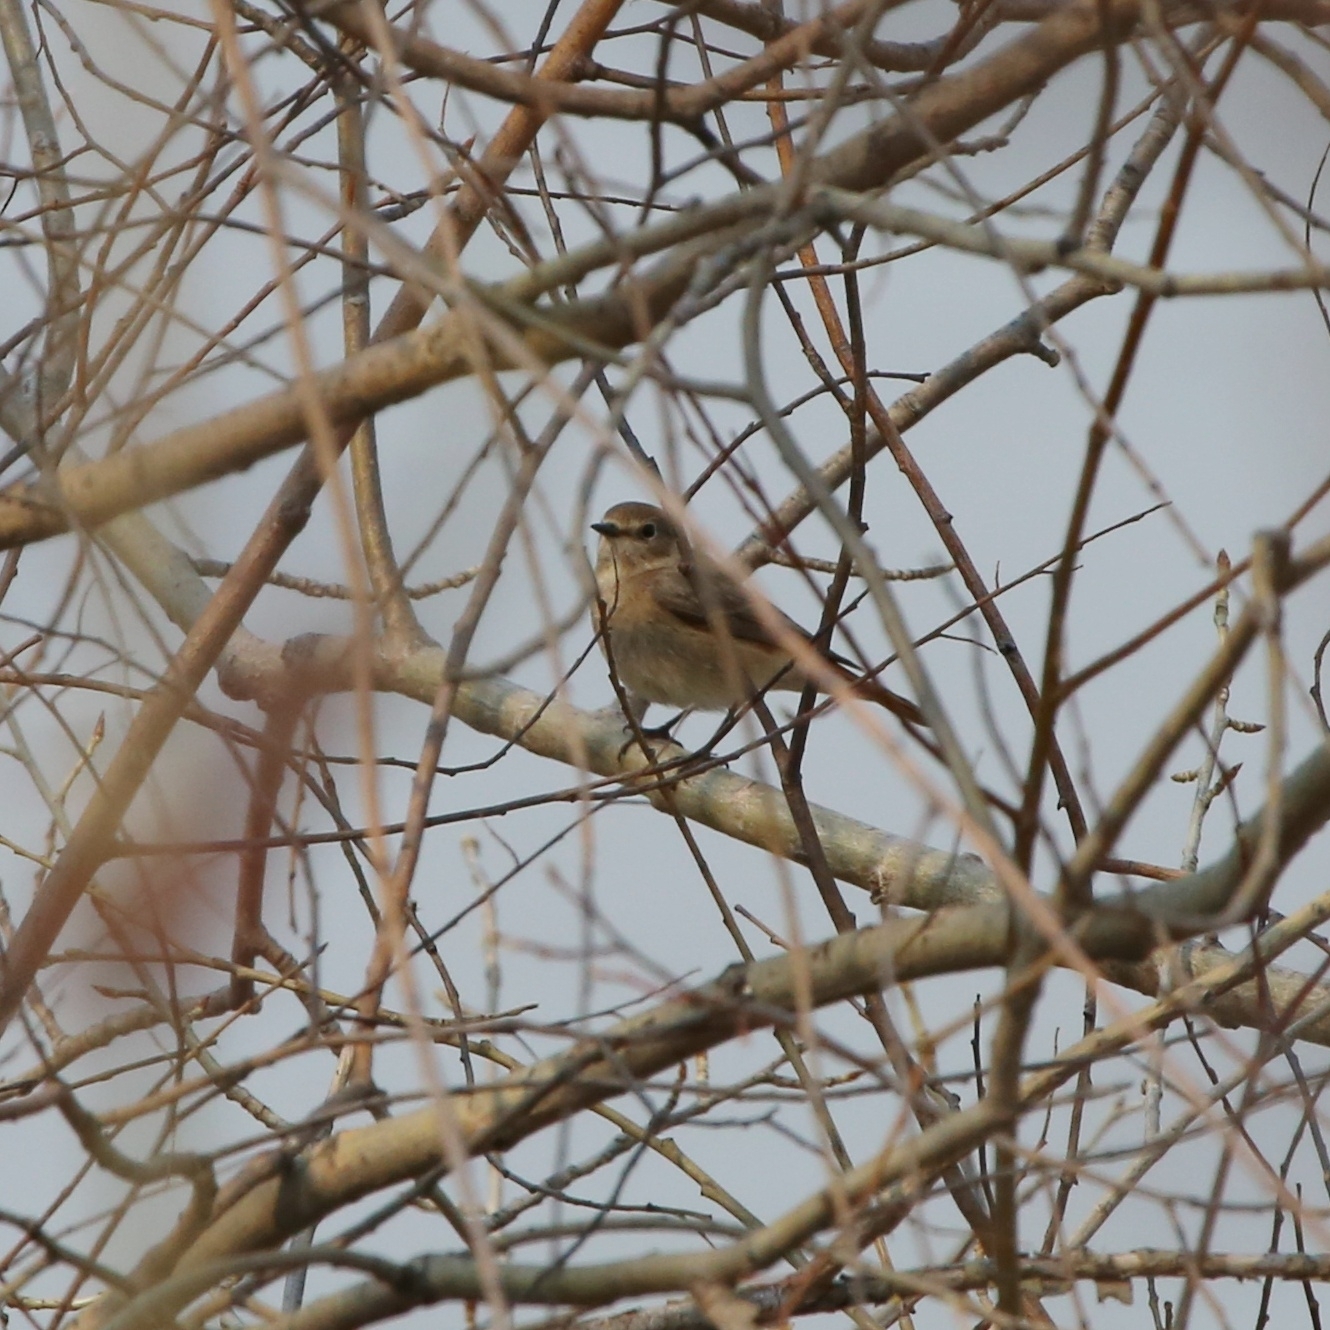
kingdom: Animalia
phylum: Chordata
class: Aves
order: Passeriformes
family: Muscicapidae
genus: Phoenicurus
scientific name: Phoenicurus phoenicurus
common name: Common redstart
